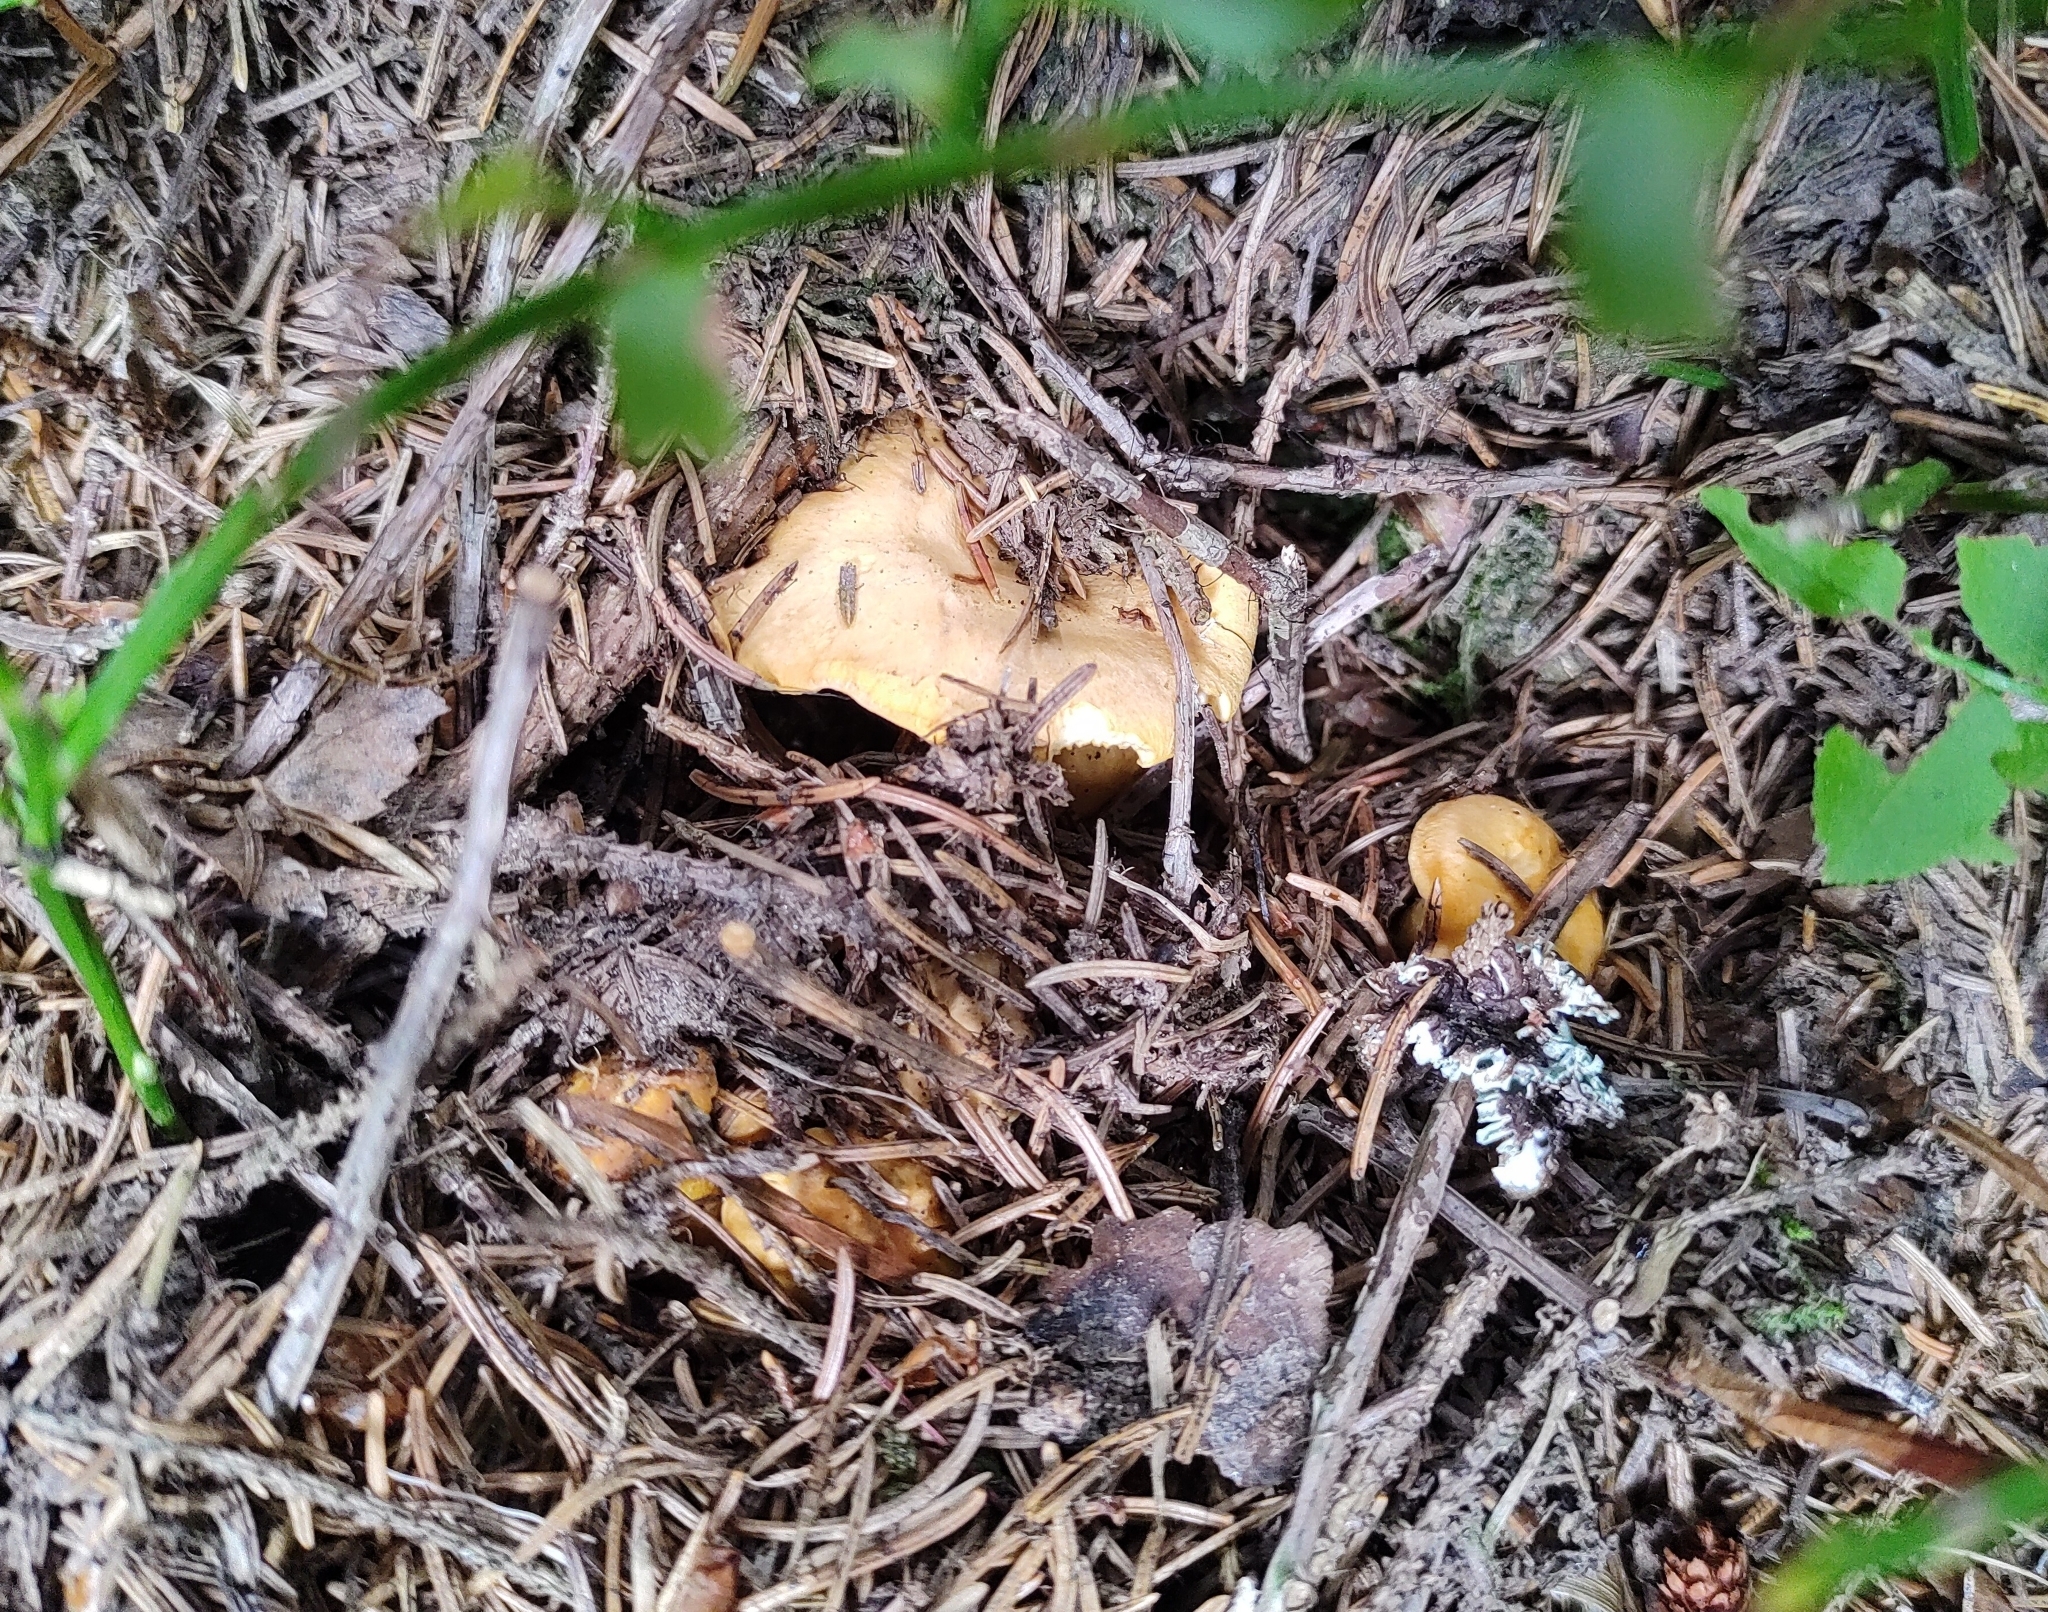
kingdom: Fungi
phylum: Basidiomycota
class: Agaricomycetes
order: Cantharellales
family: Hydnaceae
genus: Cantharellus
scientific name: Cantharellus cibarius
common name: Chanterelle
